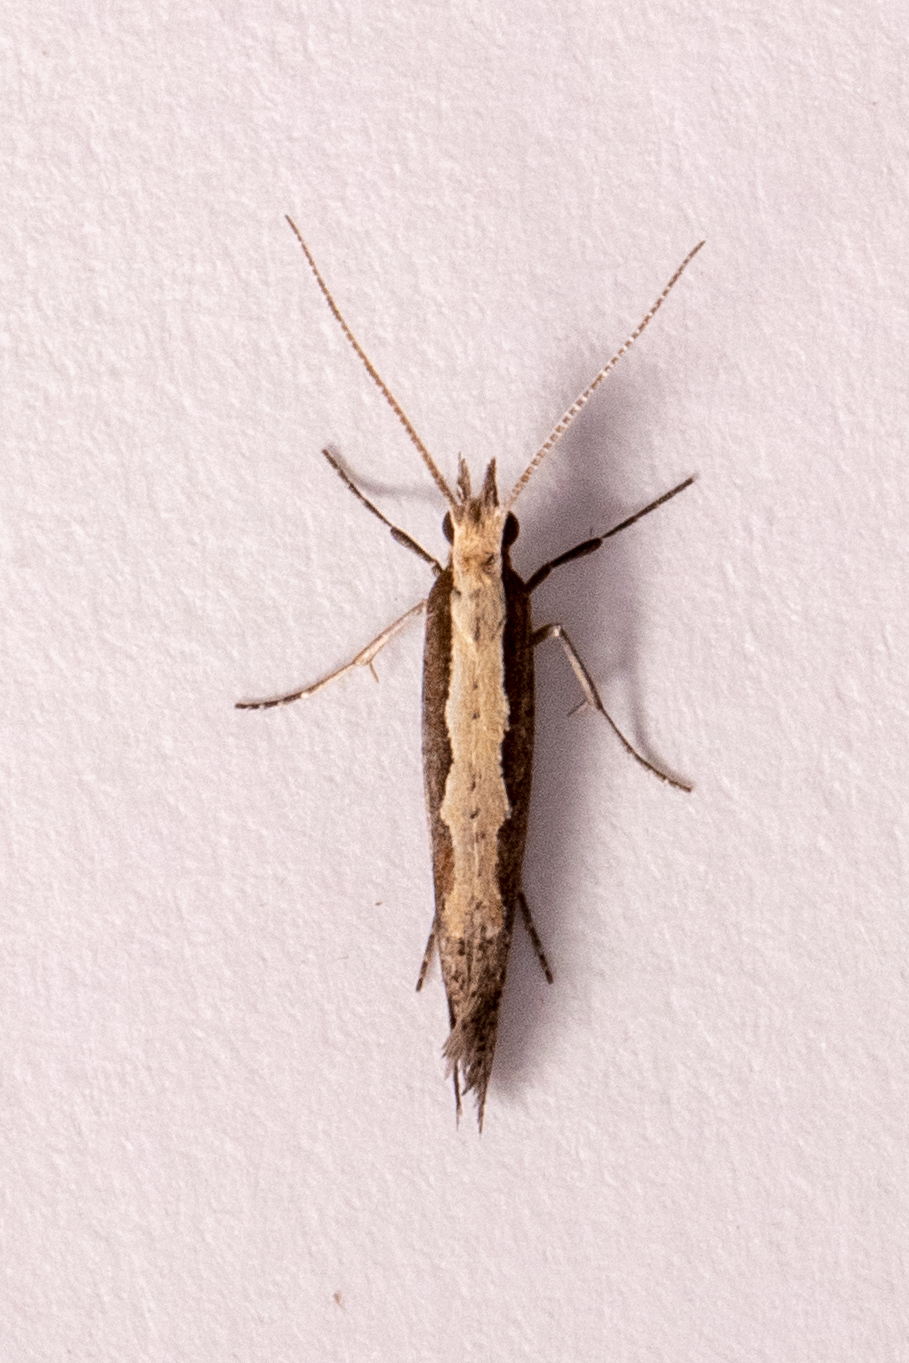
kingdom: Animalia
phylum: Arthropoda
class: Insecta
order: Lepidoptera
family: Plutellidae
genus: Plutella
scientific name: Plutella xylostella
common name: Diamond-back moth
